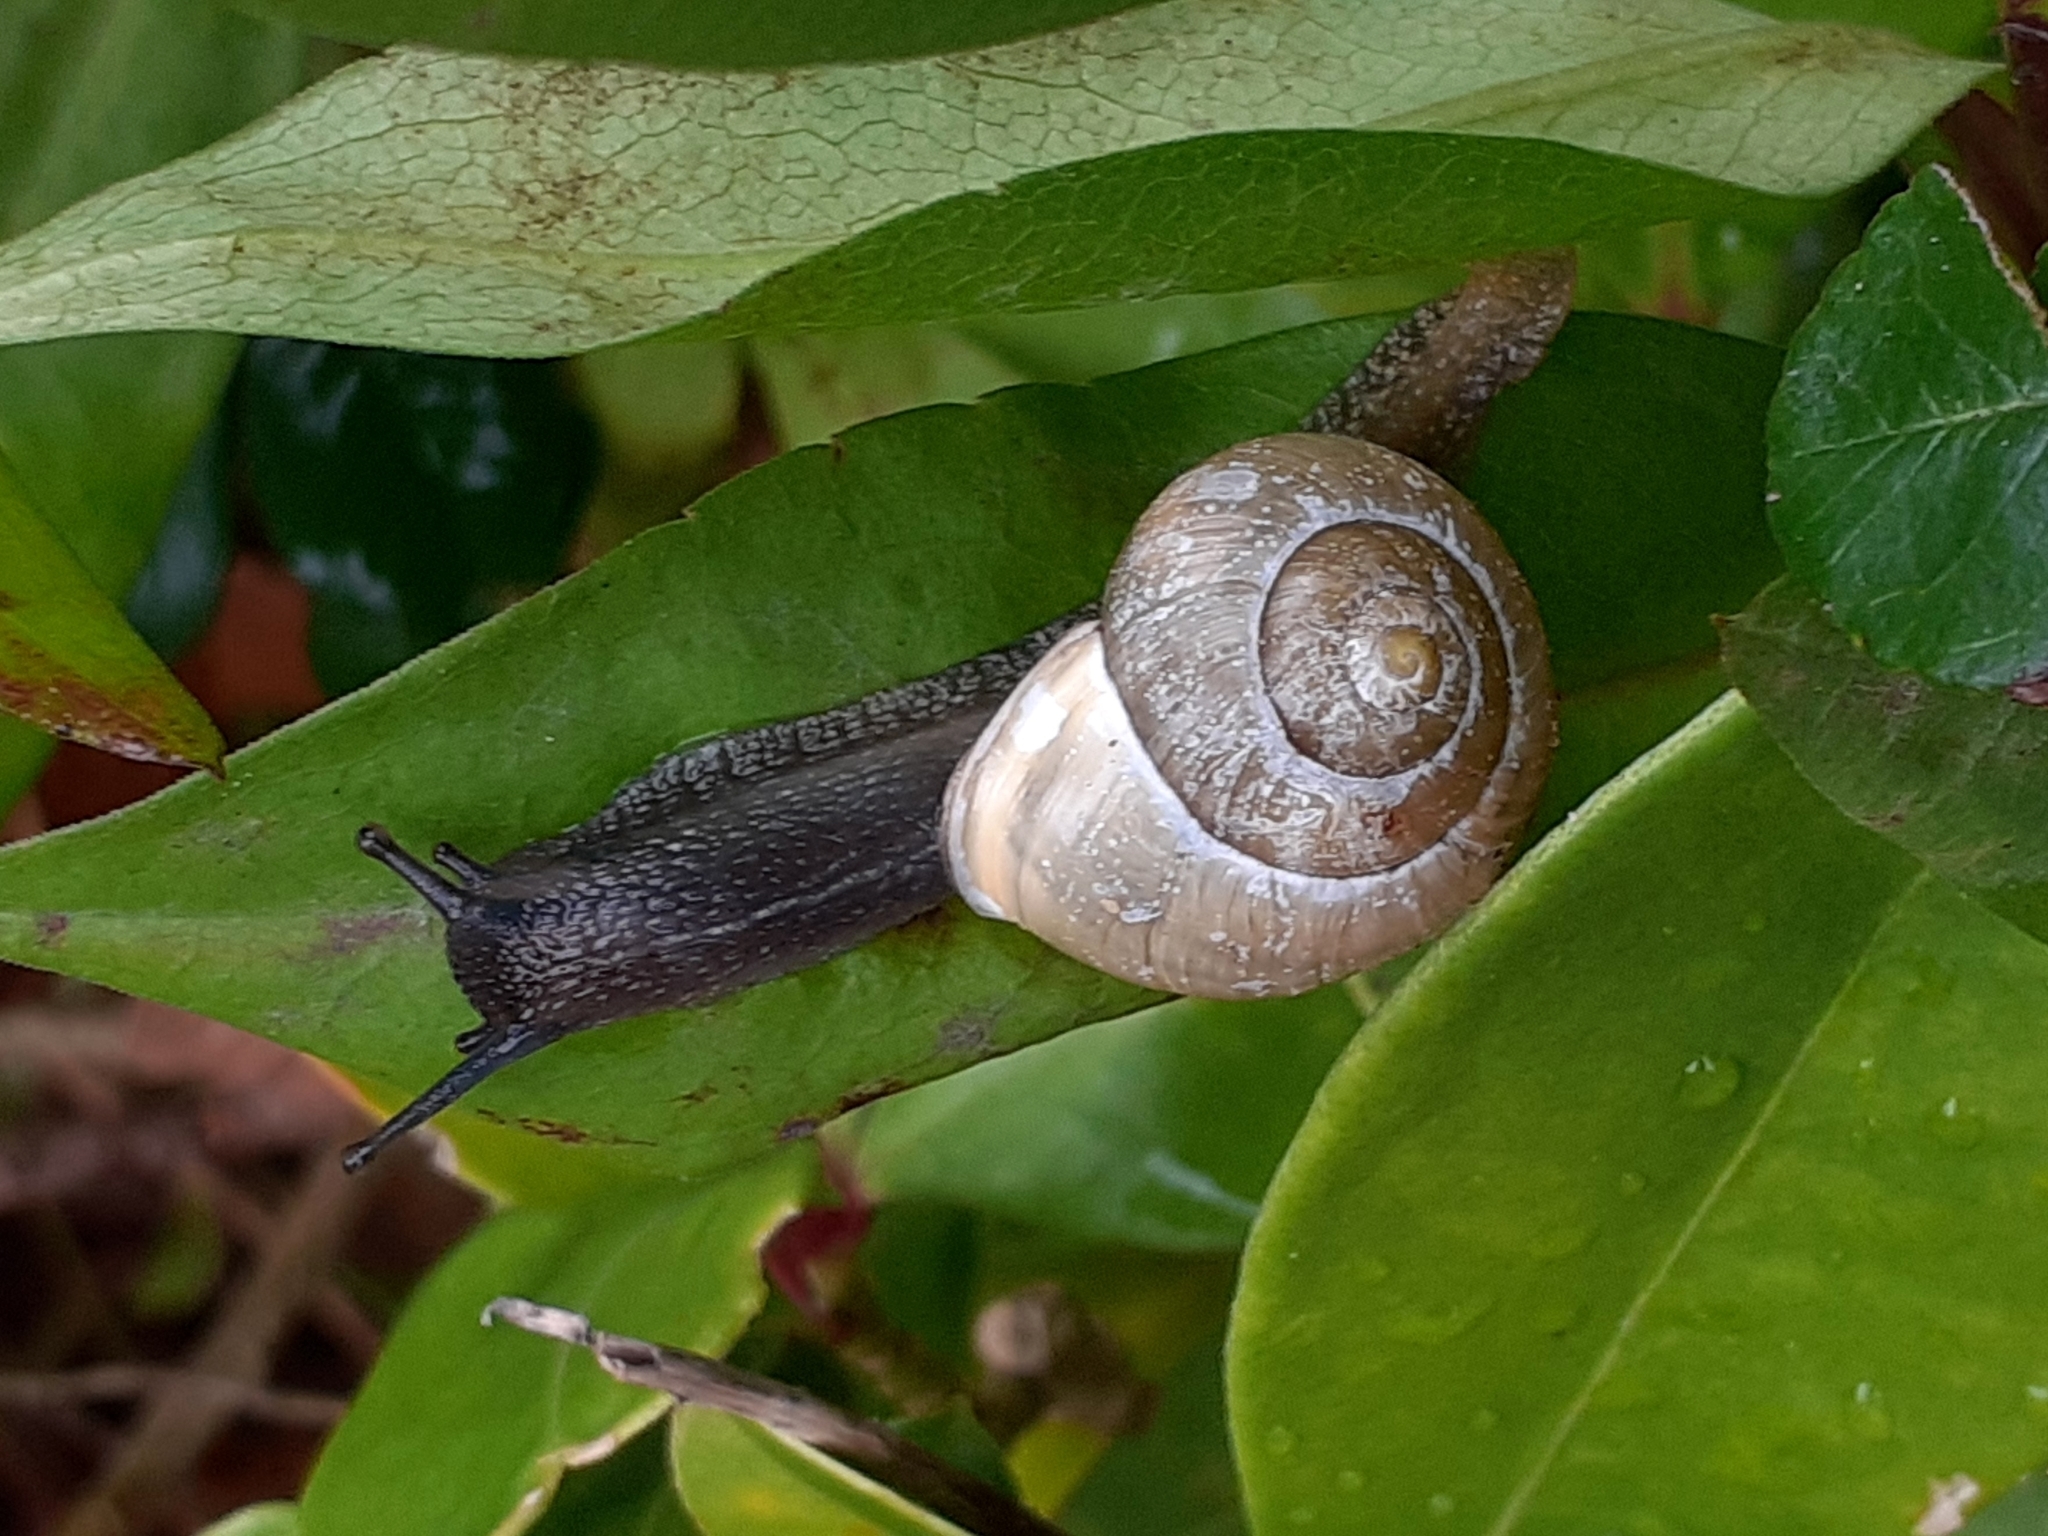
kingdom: Animalia
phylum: Mollusca
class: Gastropoda
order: Stylommatophora
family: Helicidae
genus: Cepaea
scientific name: Cepaea hortensis
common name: White-lip gardensnail
